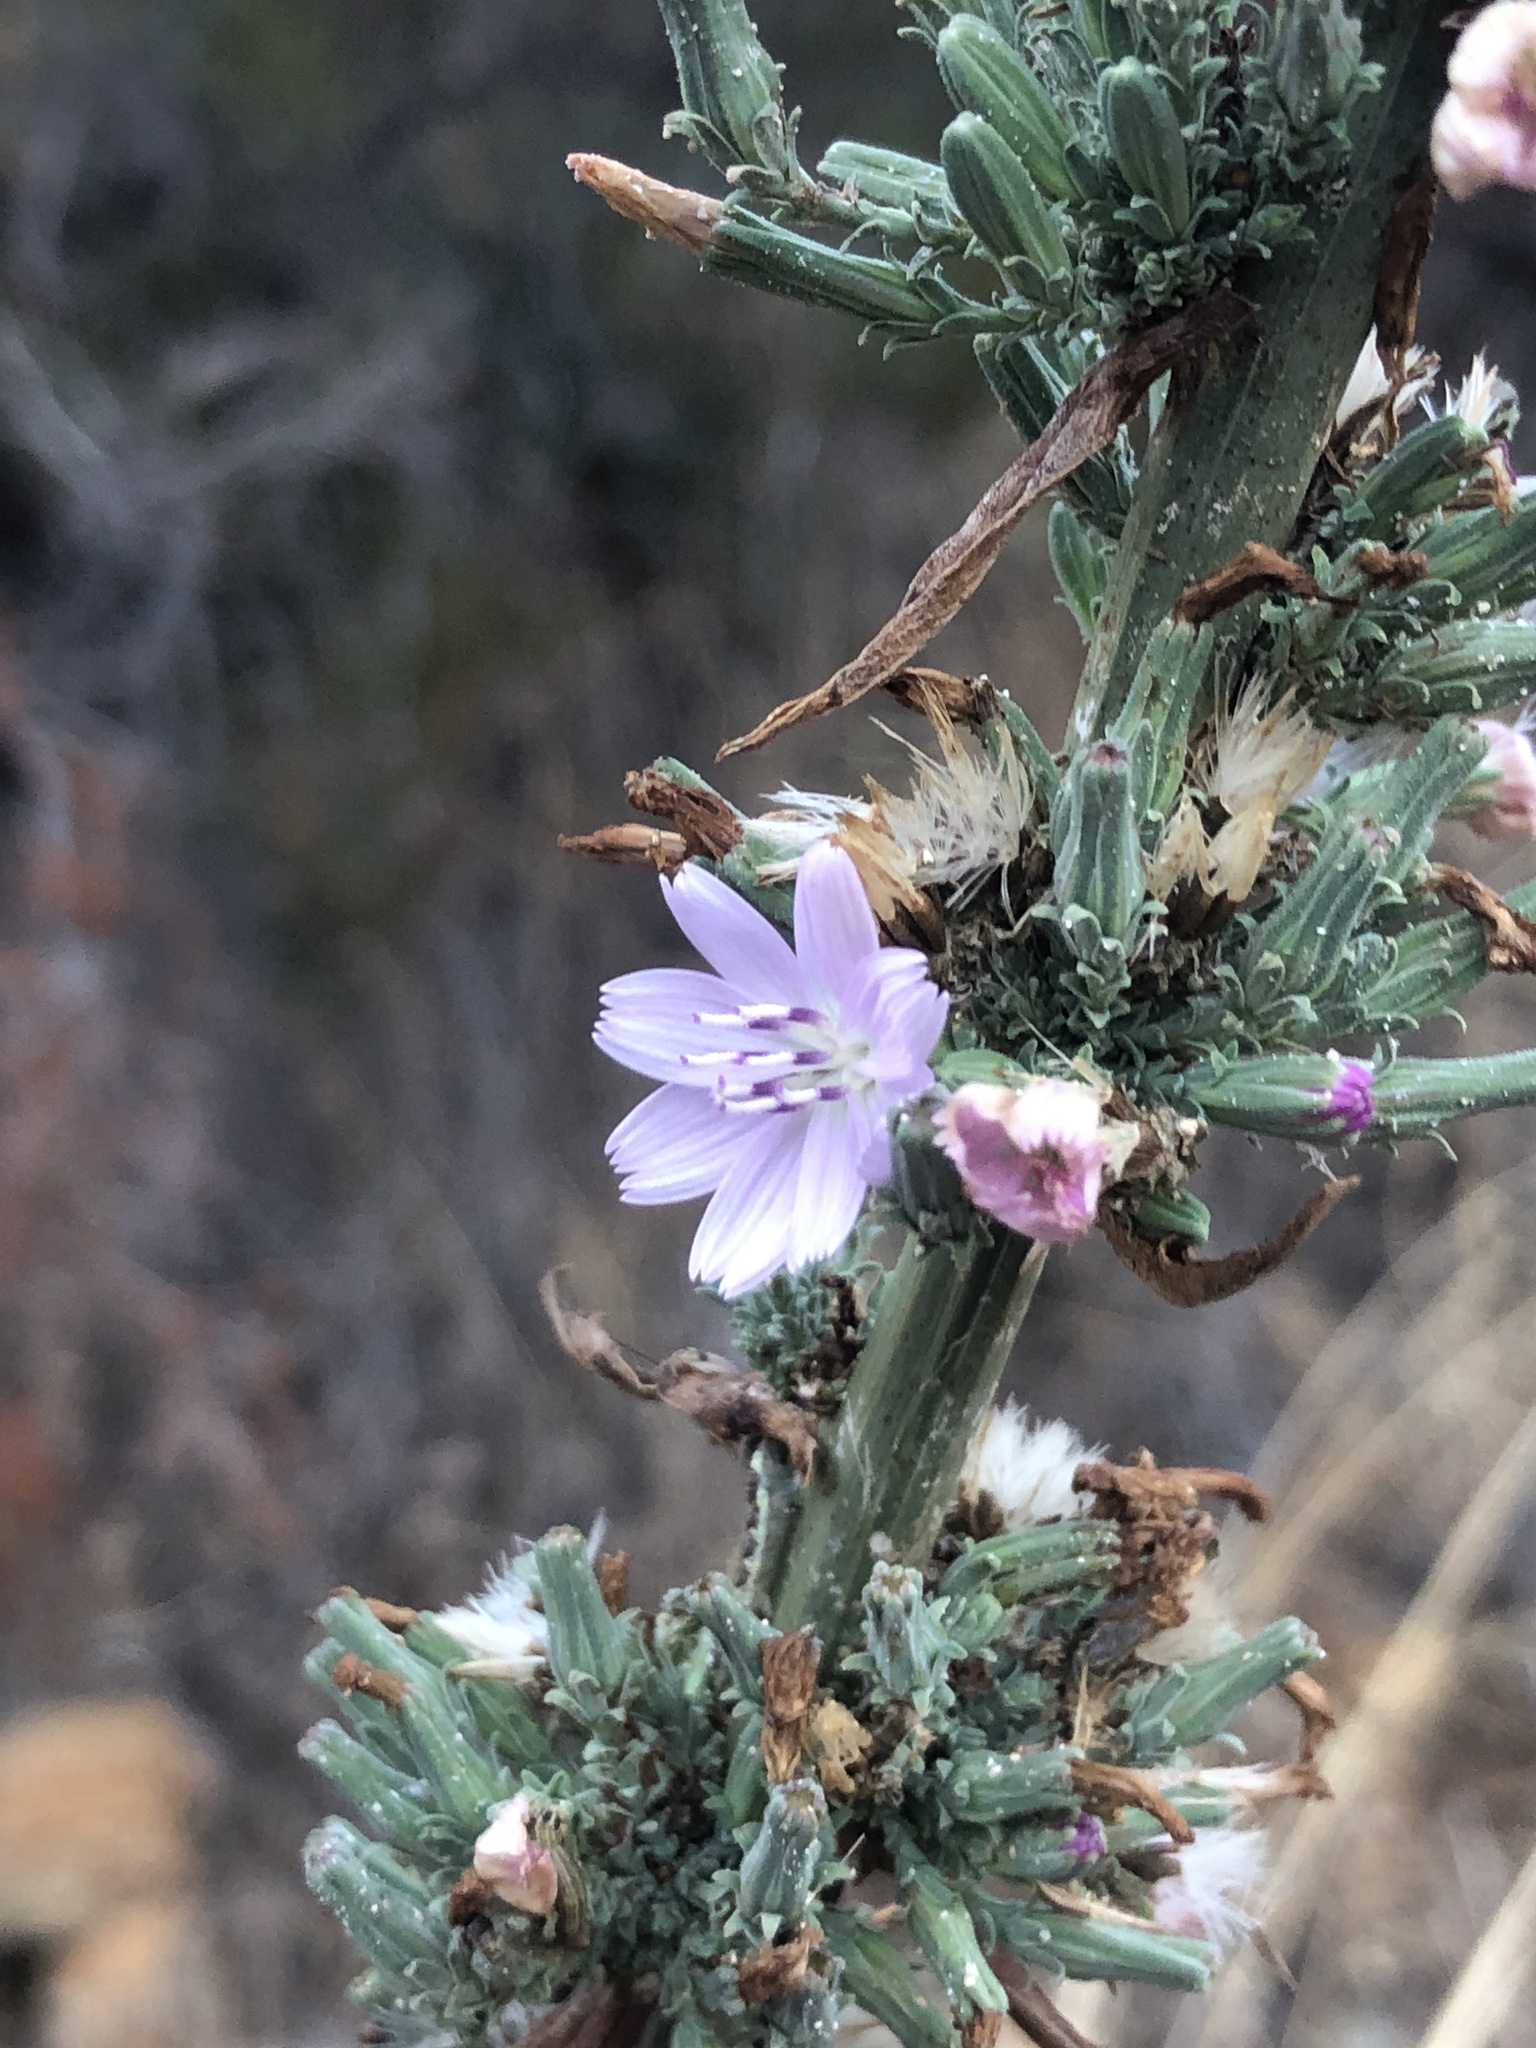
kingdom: Plantae
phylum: Tracheophyta
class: Magnoliopsida
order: Asterales
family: Asteraceae
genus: Stephanomeria
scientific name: Stephanomeria virgata
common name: Virgate wirelettuce
